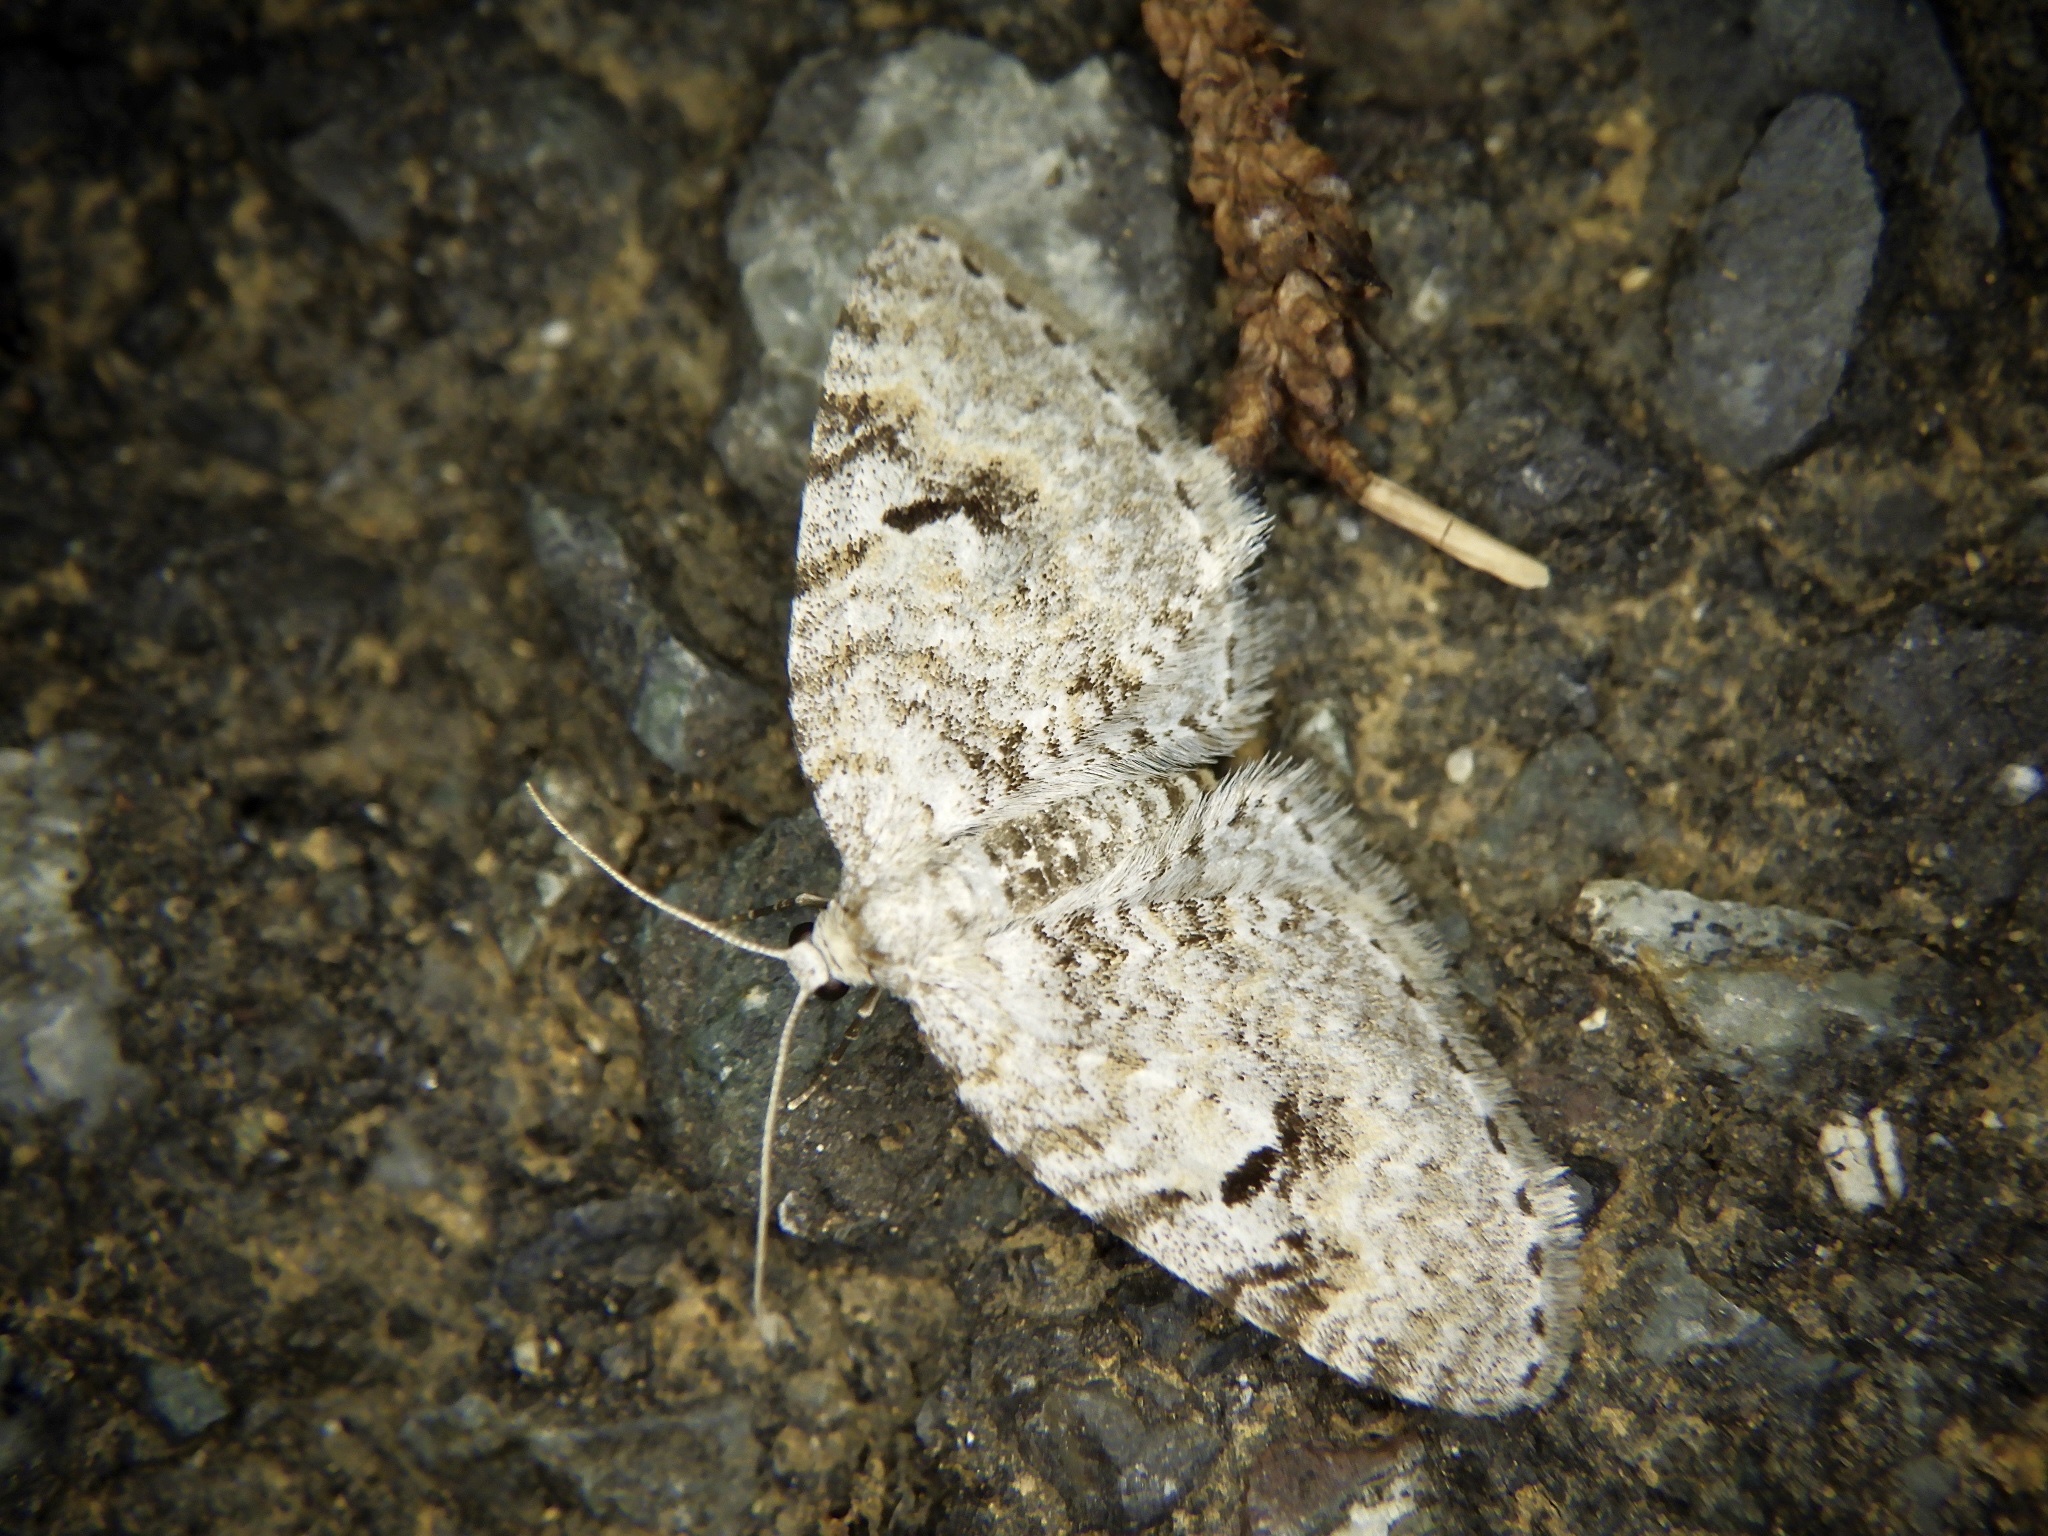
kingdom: Animalia
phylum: Arthropoda
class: Insecta
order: Lepidoptera
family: Geometridae
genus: Venusia
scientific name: Venusia megaspilata
